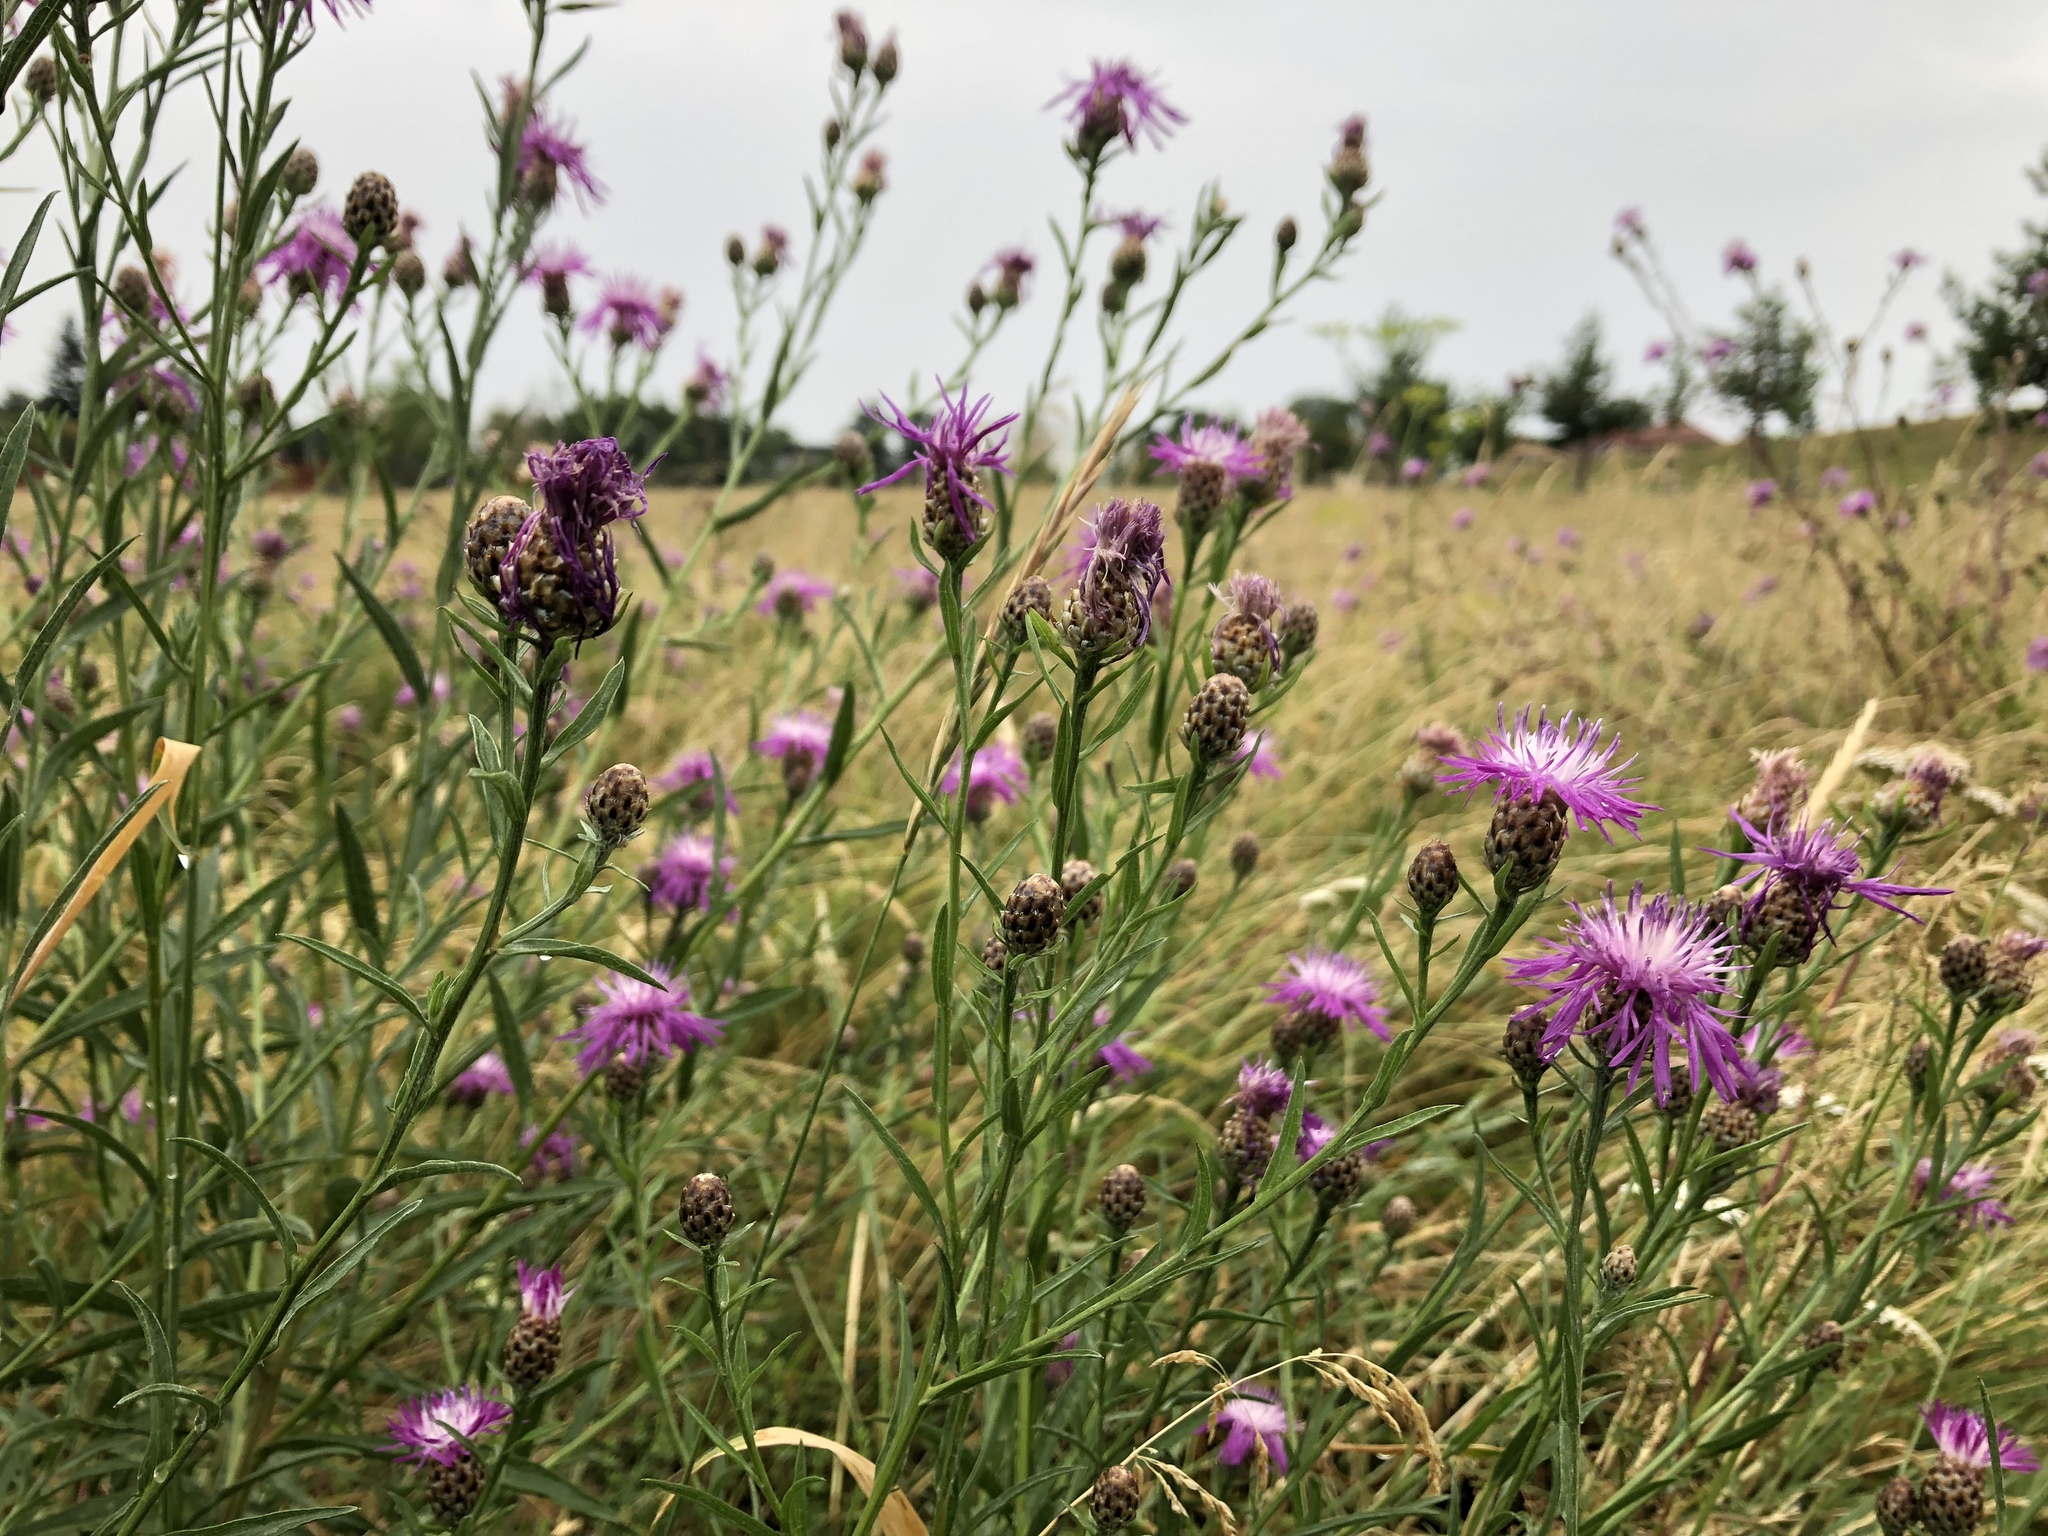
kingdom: Plantae
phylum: Tracheophyta
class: Magnoliopsida
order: Asterales
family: Asteraceae
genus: Centaurea
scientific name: Centaurea jacea
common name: Brown knapweed
